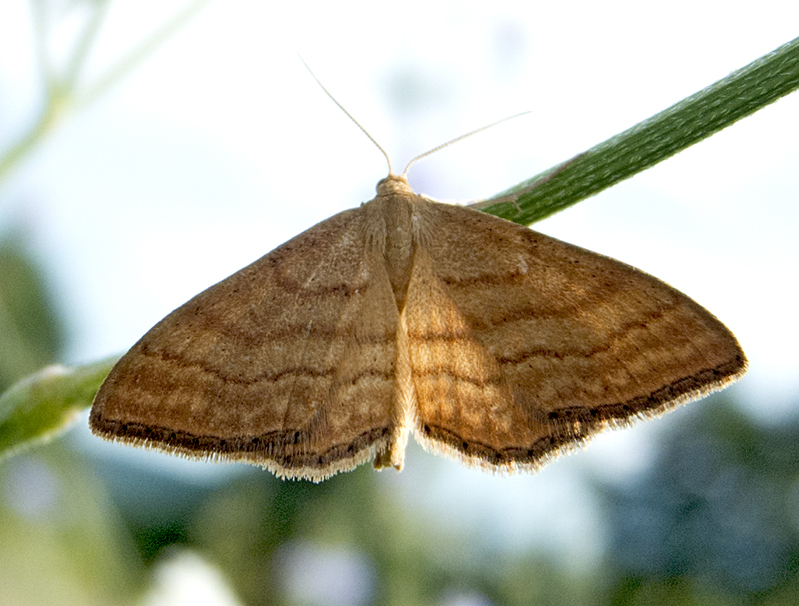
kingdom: Animalia
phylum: Arthropoda
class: Insecta
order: Lepidoptera
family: Geometridae
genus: Idaea
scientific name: Idaea ochrata
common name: Bright wave
